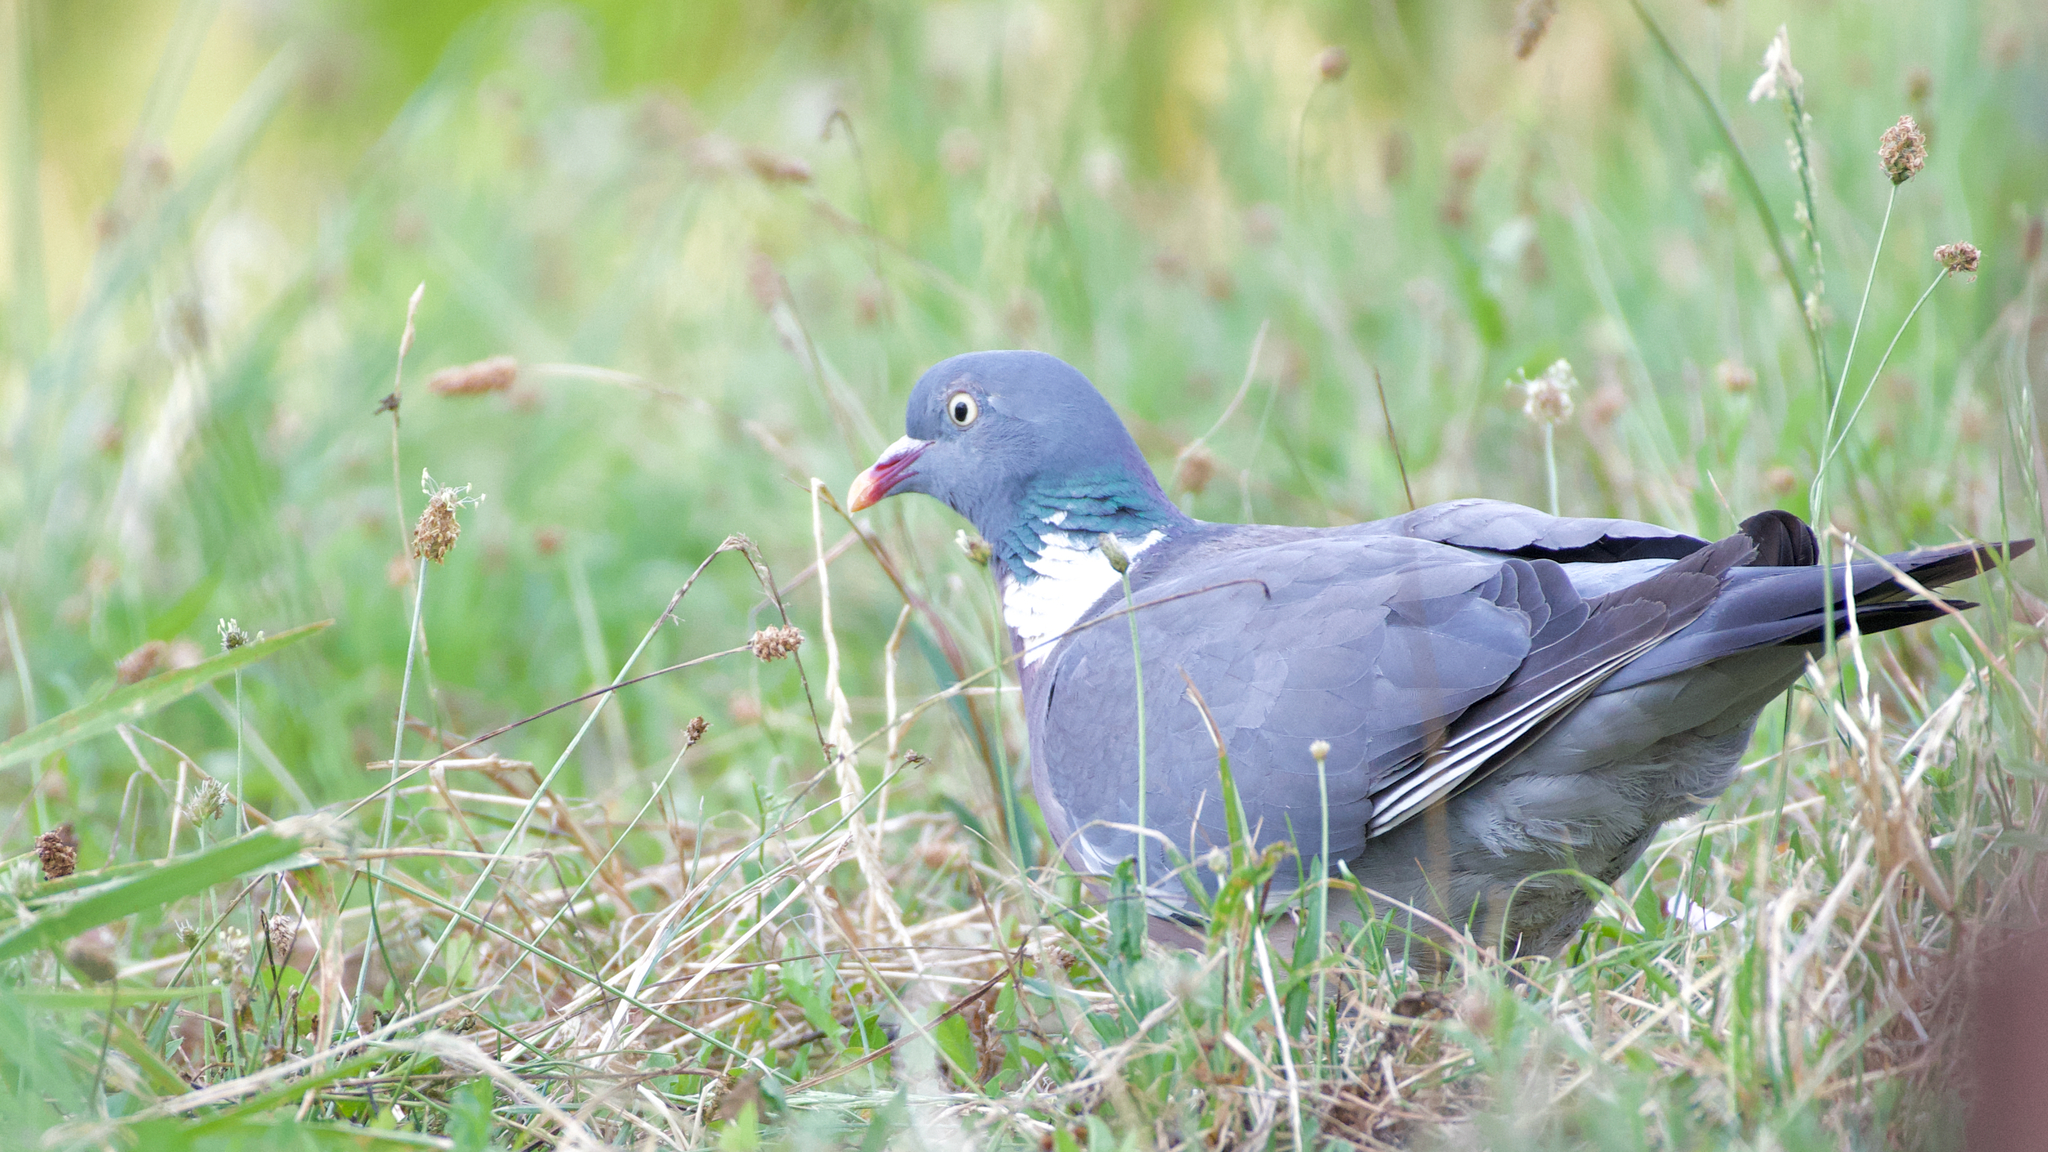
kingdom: Animalia
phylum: Chordata
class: Aves
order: Columbiformes
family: Columbidae
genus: Columba
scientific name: Columba palumbus
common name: Common wood pigeon
